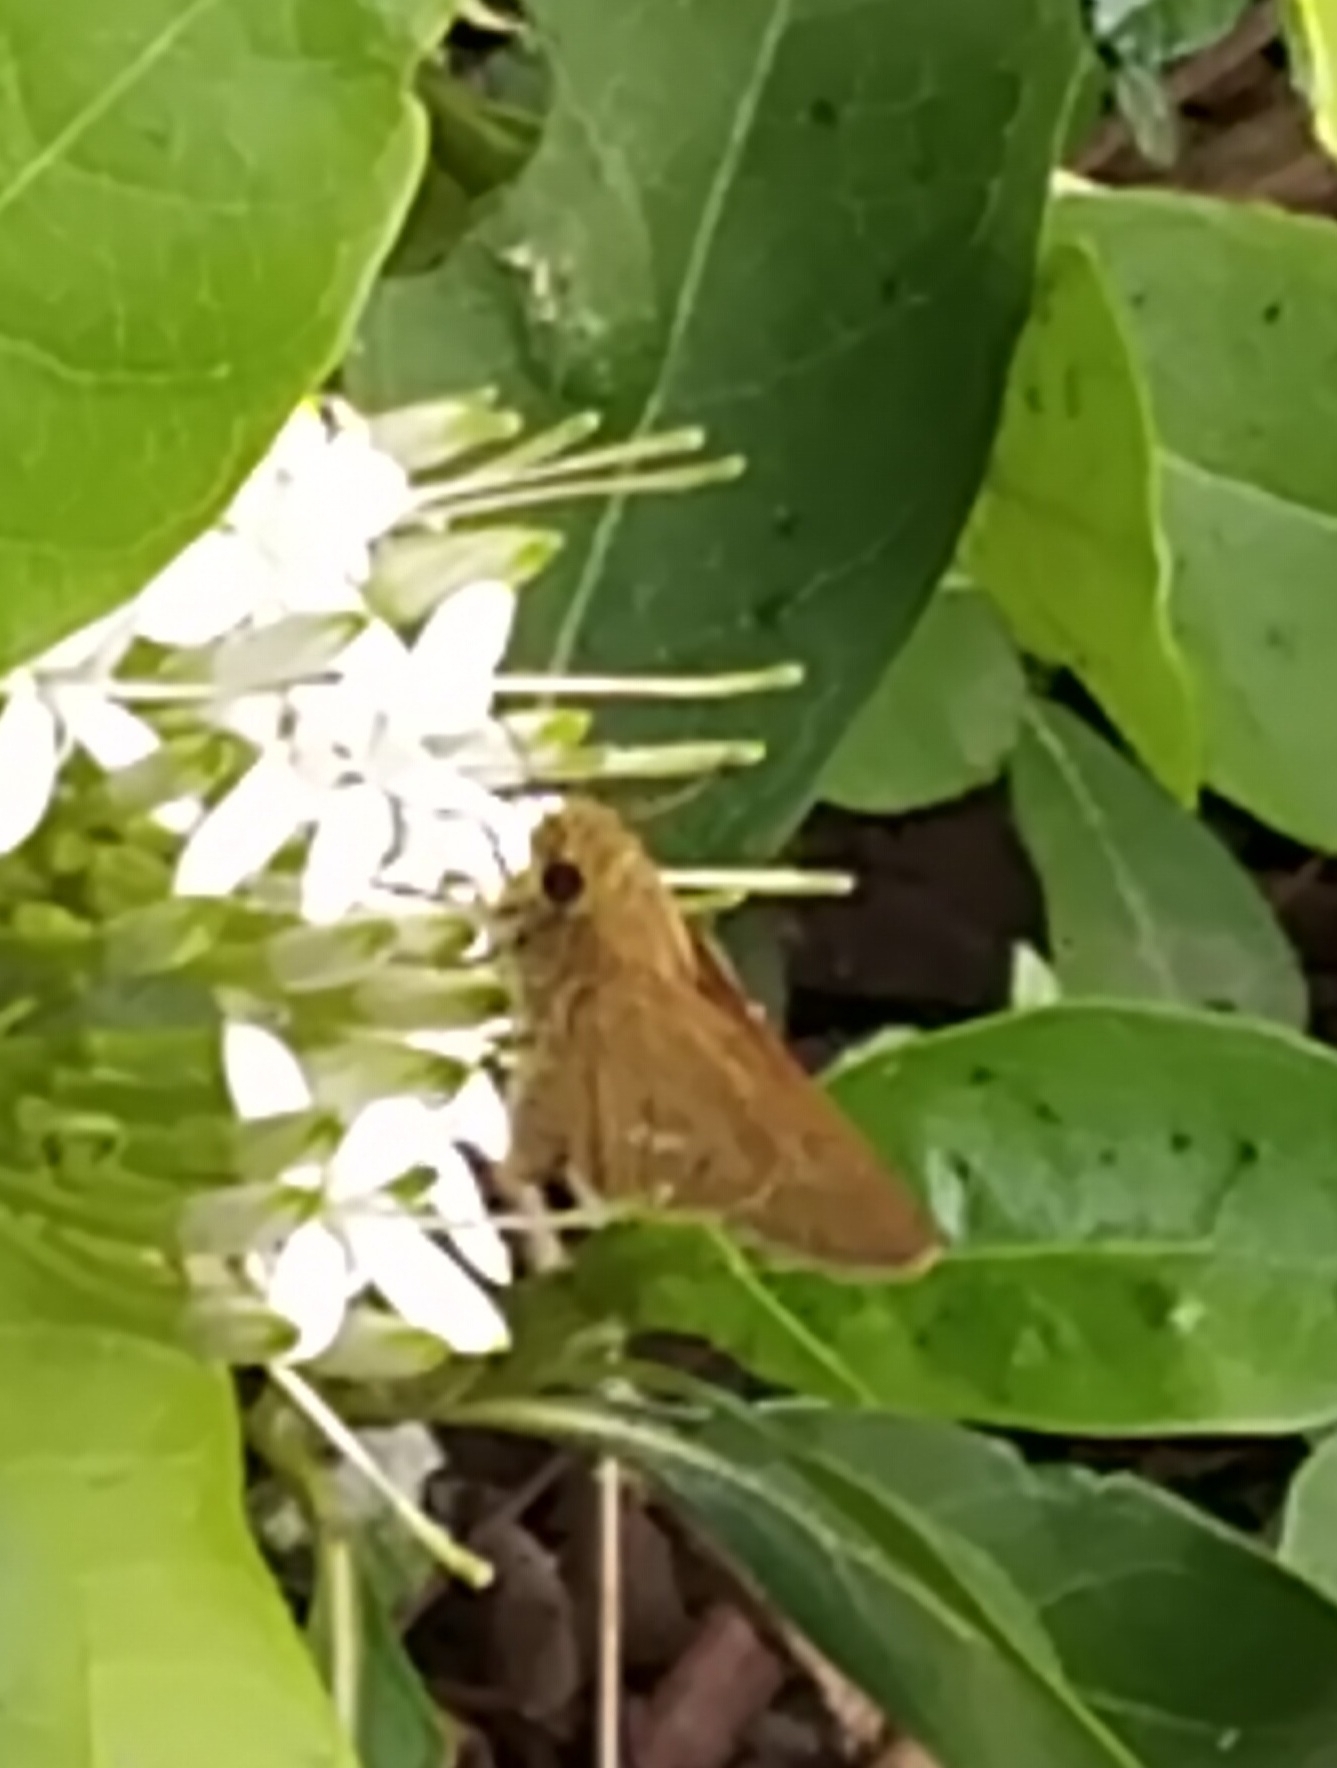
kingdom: Animalia
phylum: Arthropoda
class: Insecta
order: Lepidoptera
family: Hesperiidae
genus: Parnara
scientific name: Parnara naso
